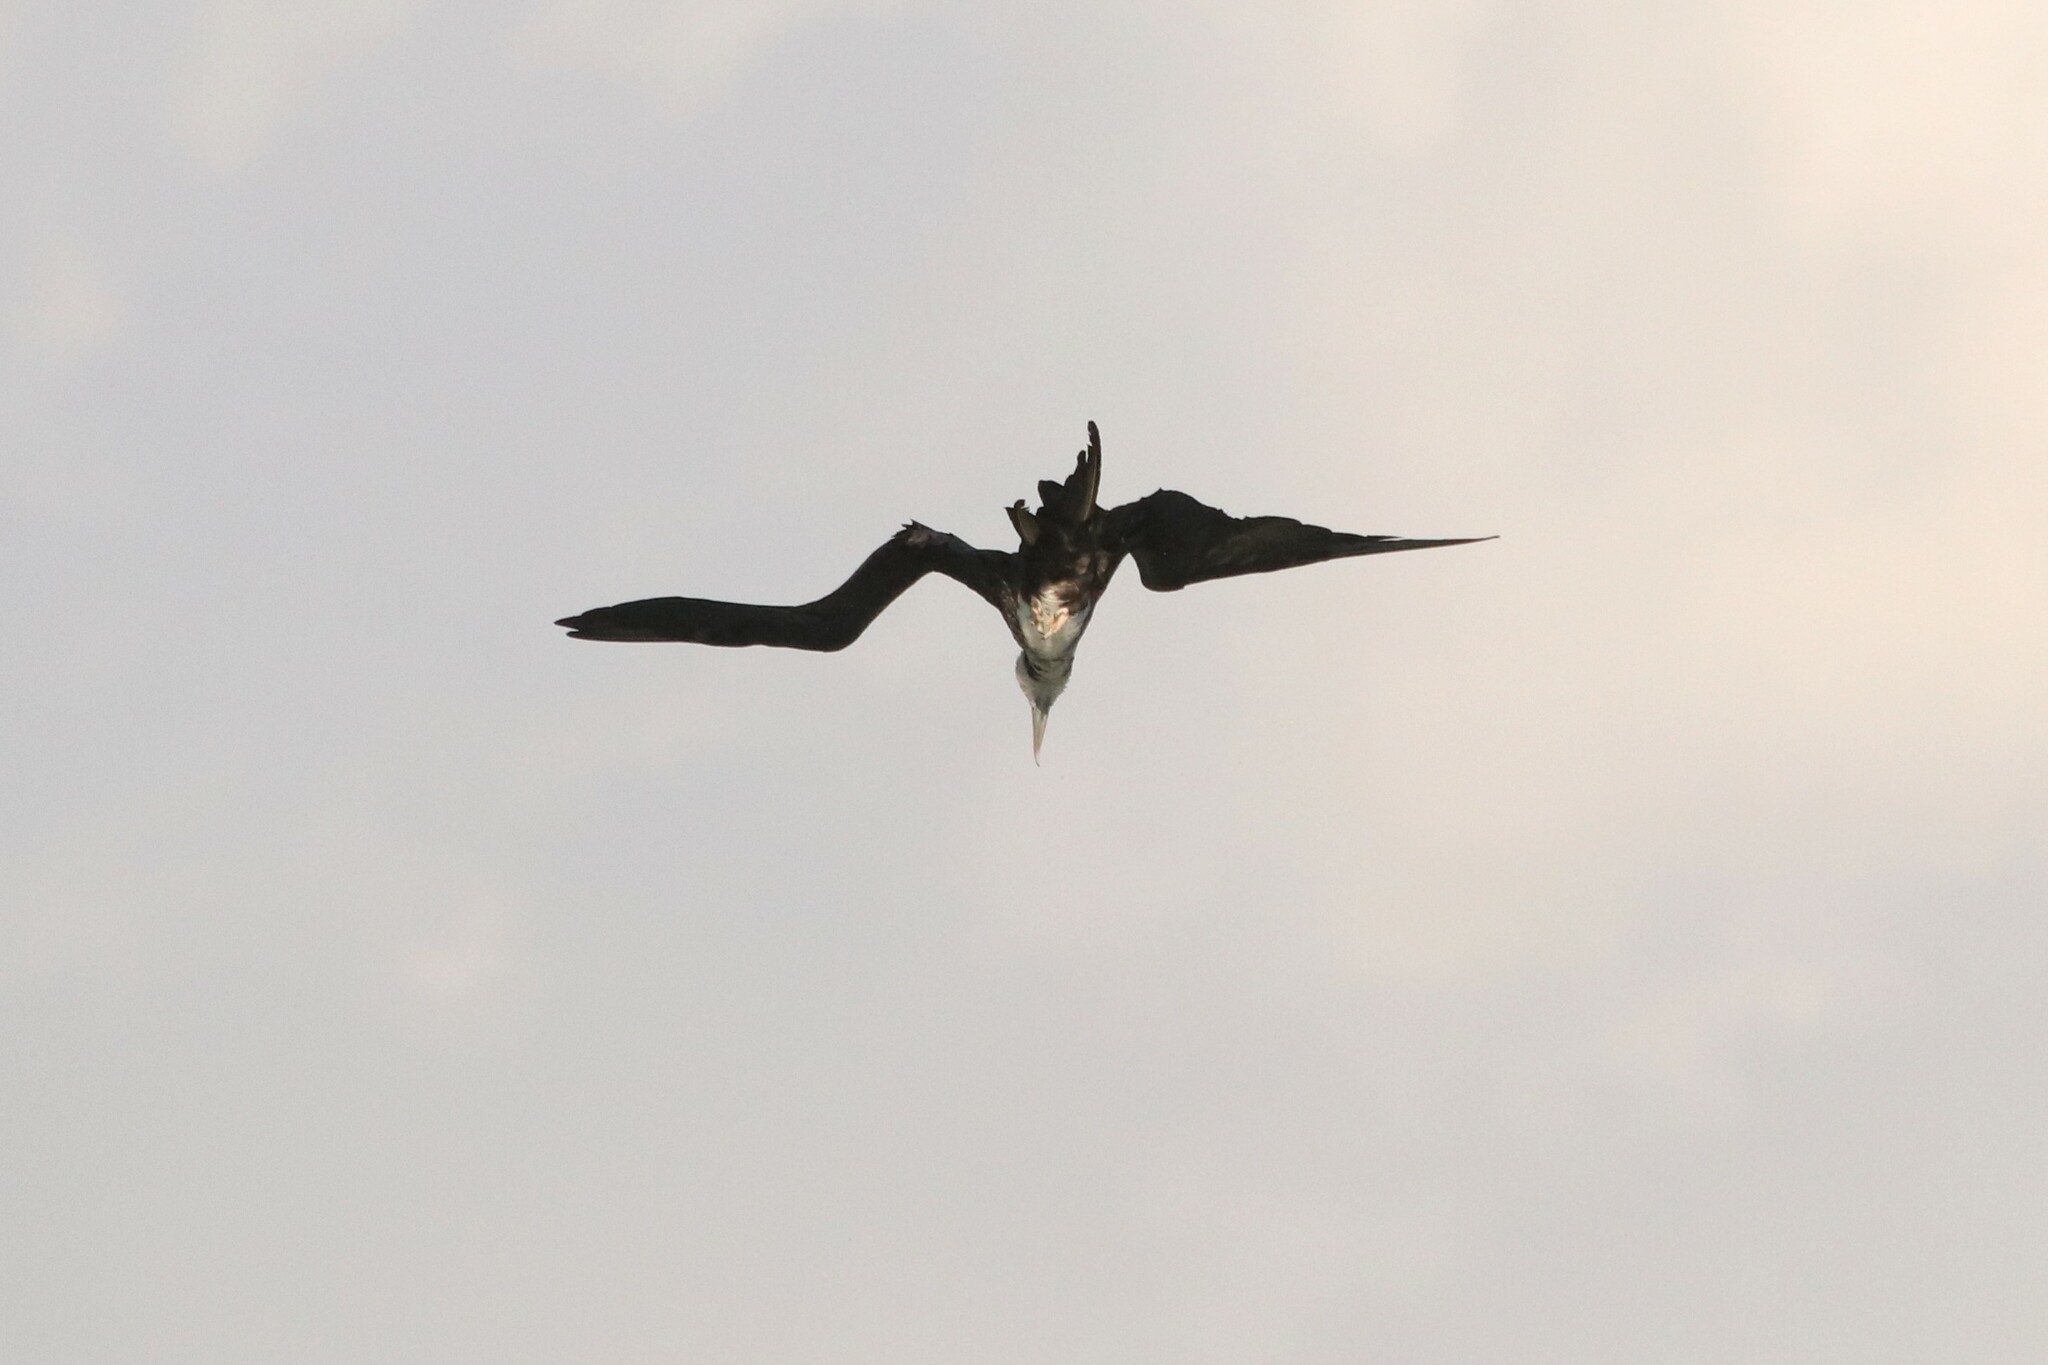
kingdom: Animalia
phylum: Chordata
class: Aves
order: Suliformes
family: Fregatidae
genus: Fregata
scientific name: Fregata magnificens
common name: Magnificent frigatebird
